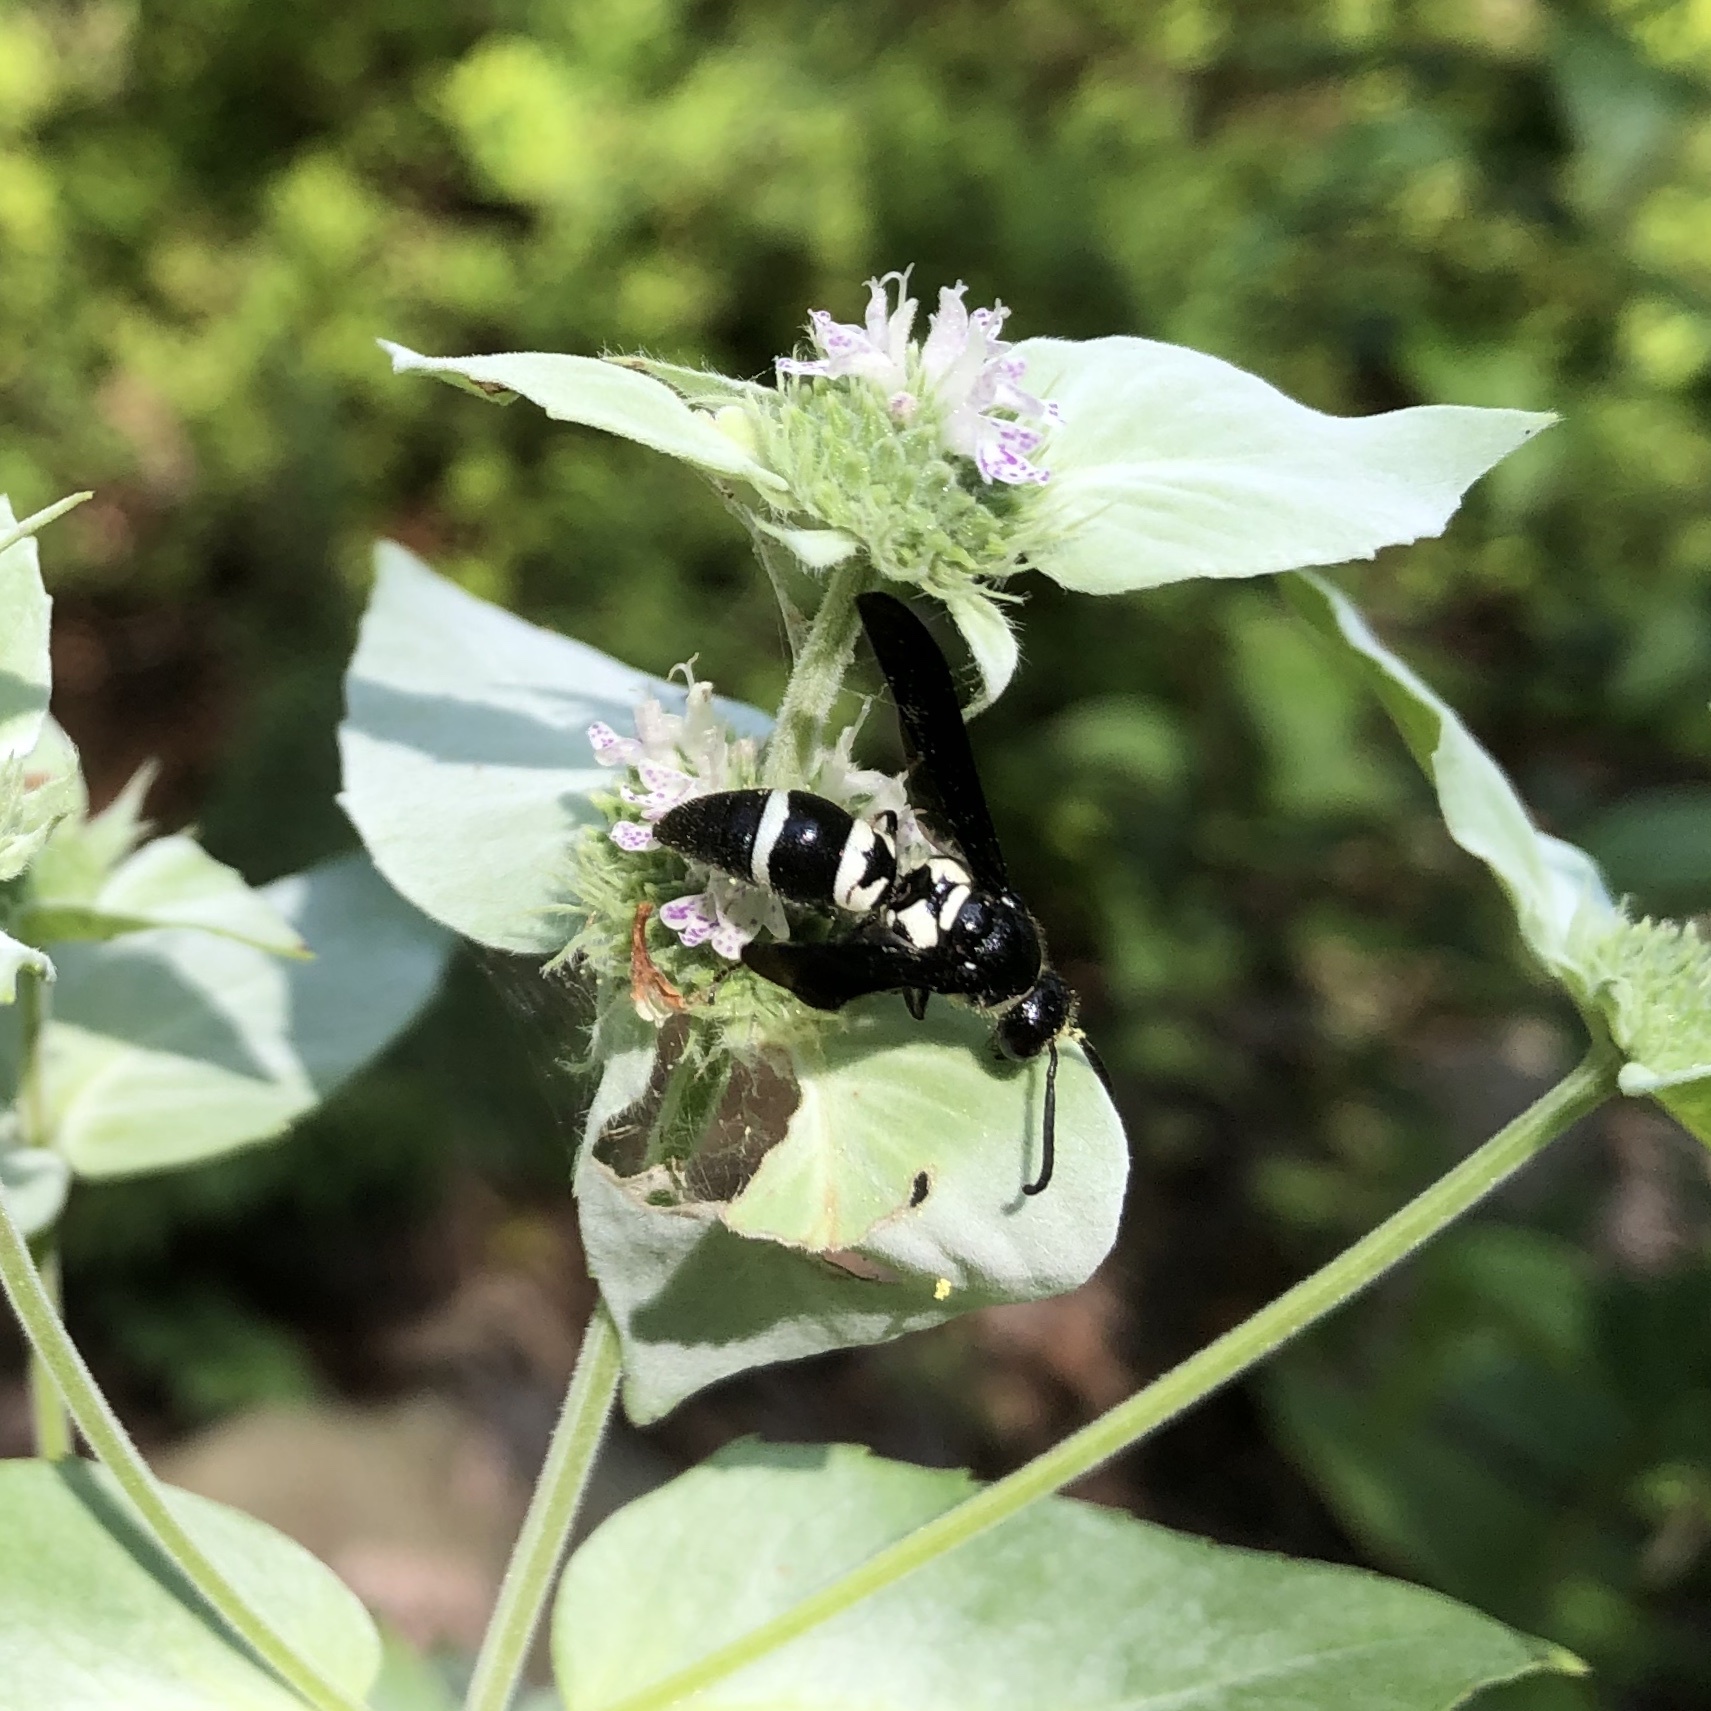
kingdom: Animalia
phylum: Arthropoda
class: Insecta
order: Hymenoptera
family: Eumenidae
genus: Pseudodynerus
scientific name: Pseudodynerus quadrisectus
